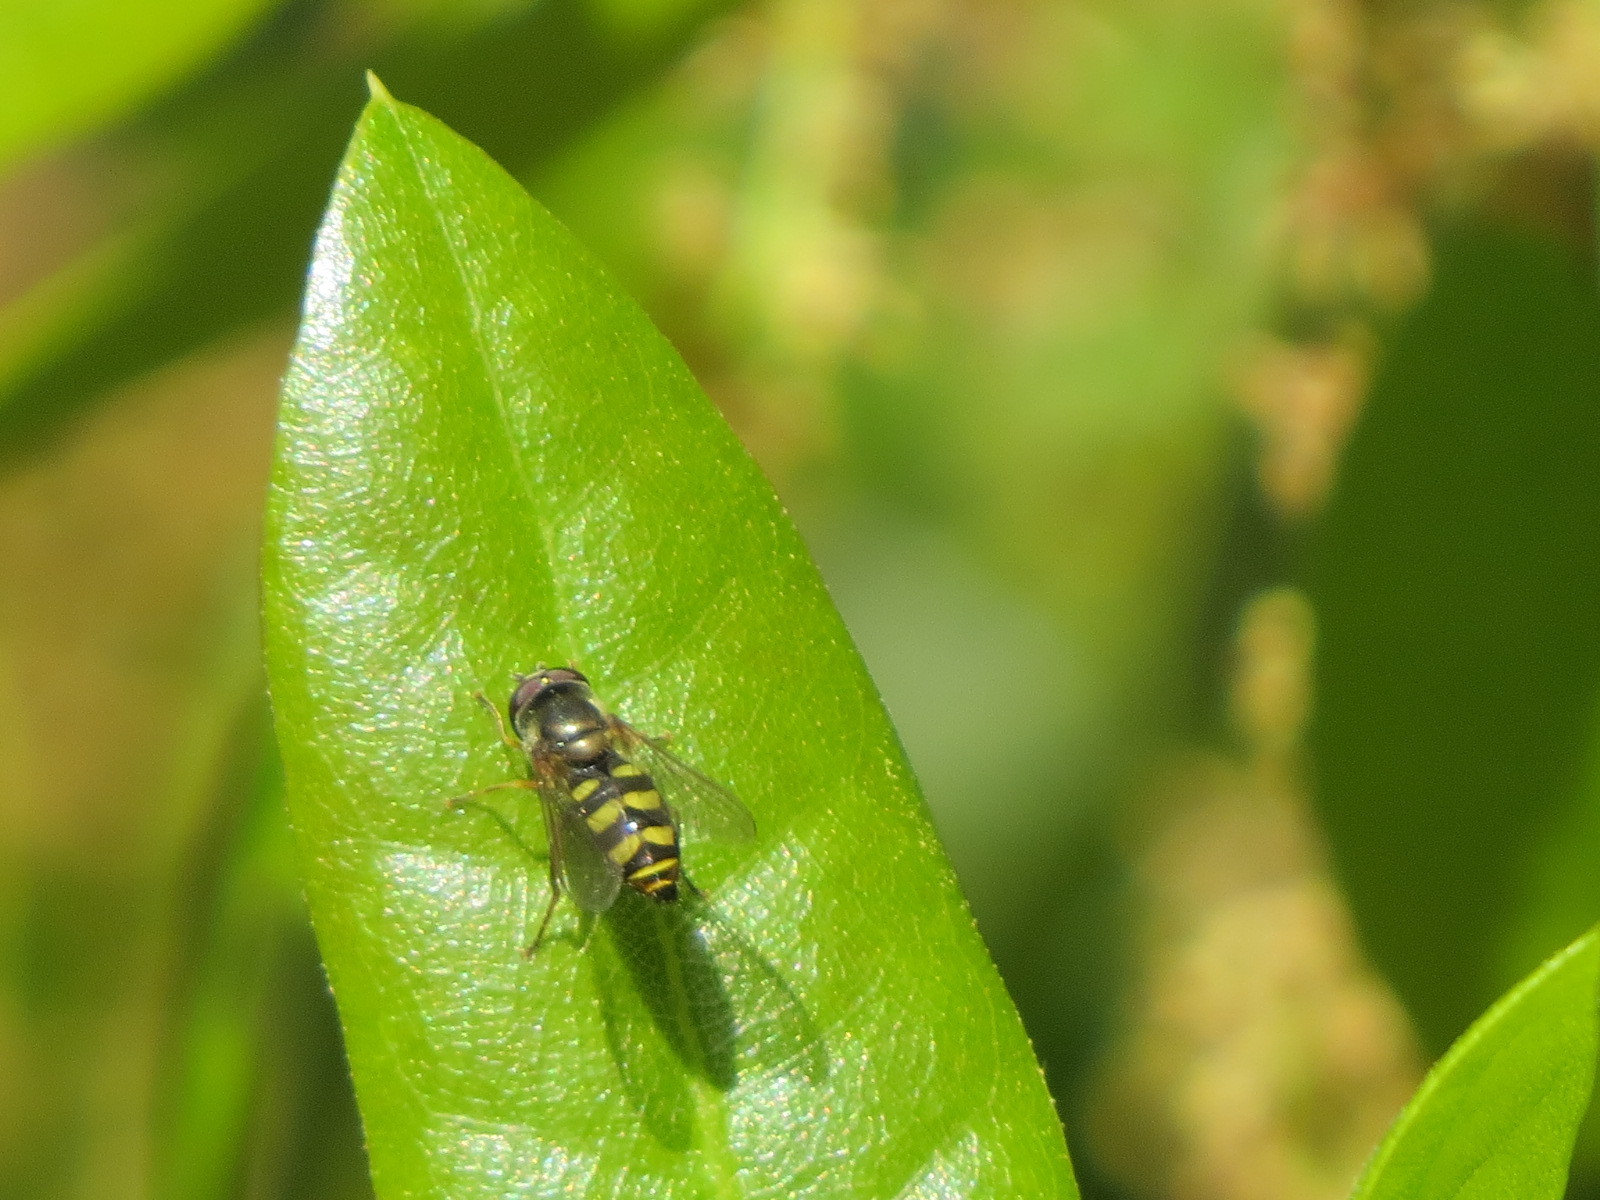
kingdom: Animalia
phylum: Arthropoda
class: Insecta
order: Diptera
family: Syrphidae
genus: Eupeodes
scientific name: Eupeodes fumipennis
